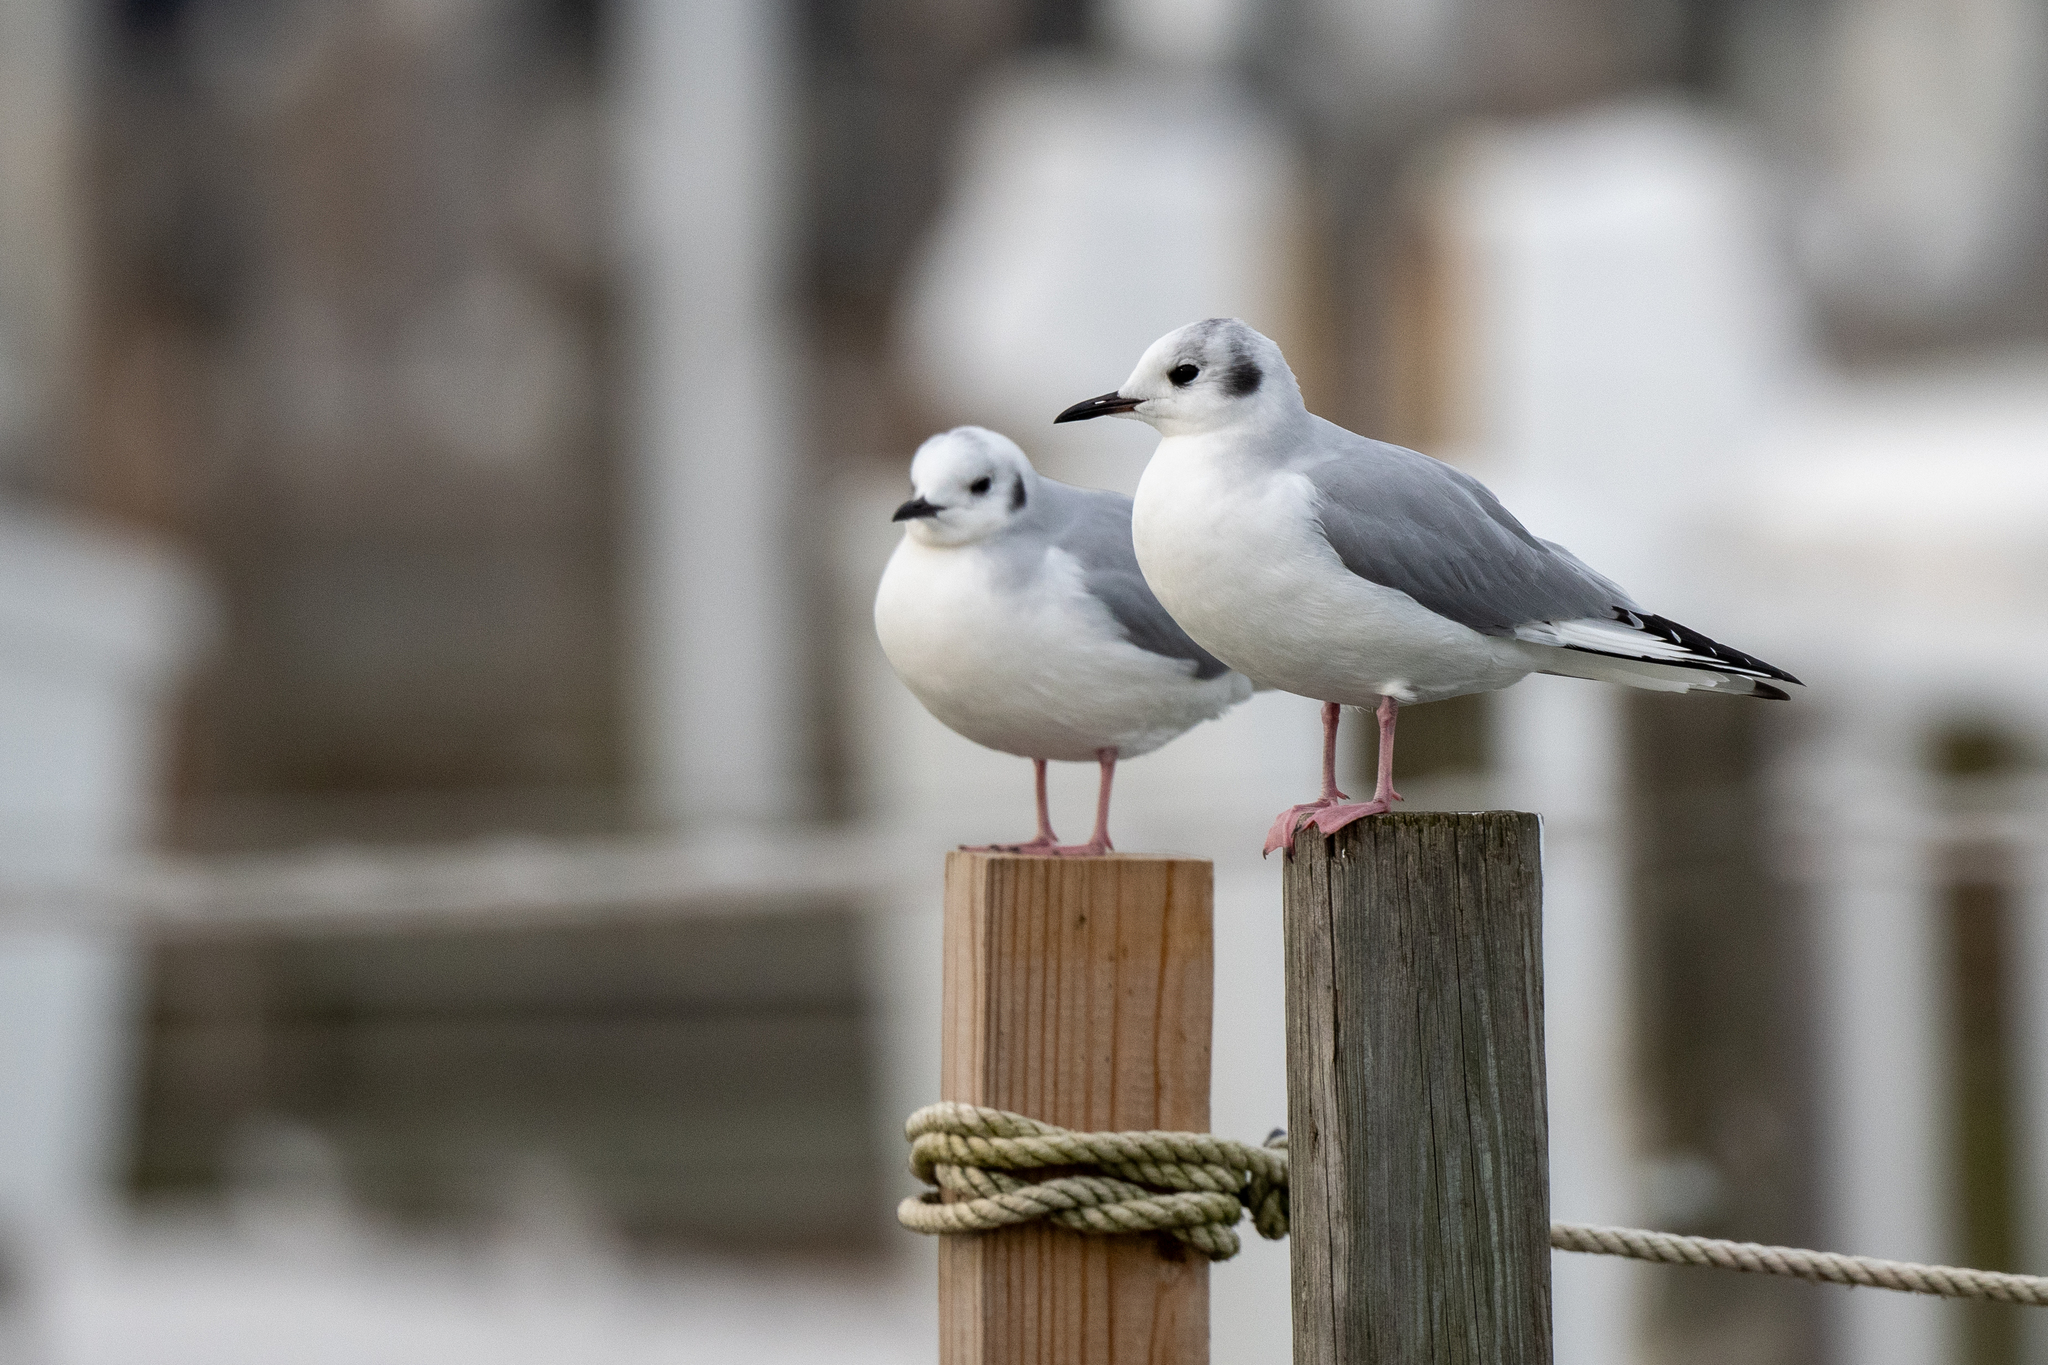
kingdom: Animalia
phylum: Chordata
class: Aves
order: Charadriiformes
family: Laridae
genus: Chroicocephalus
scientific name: Chroicocephalus philadelphia
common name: Bonaparte's gull
